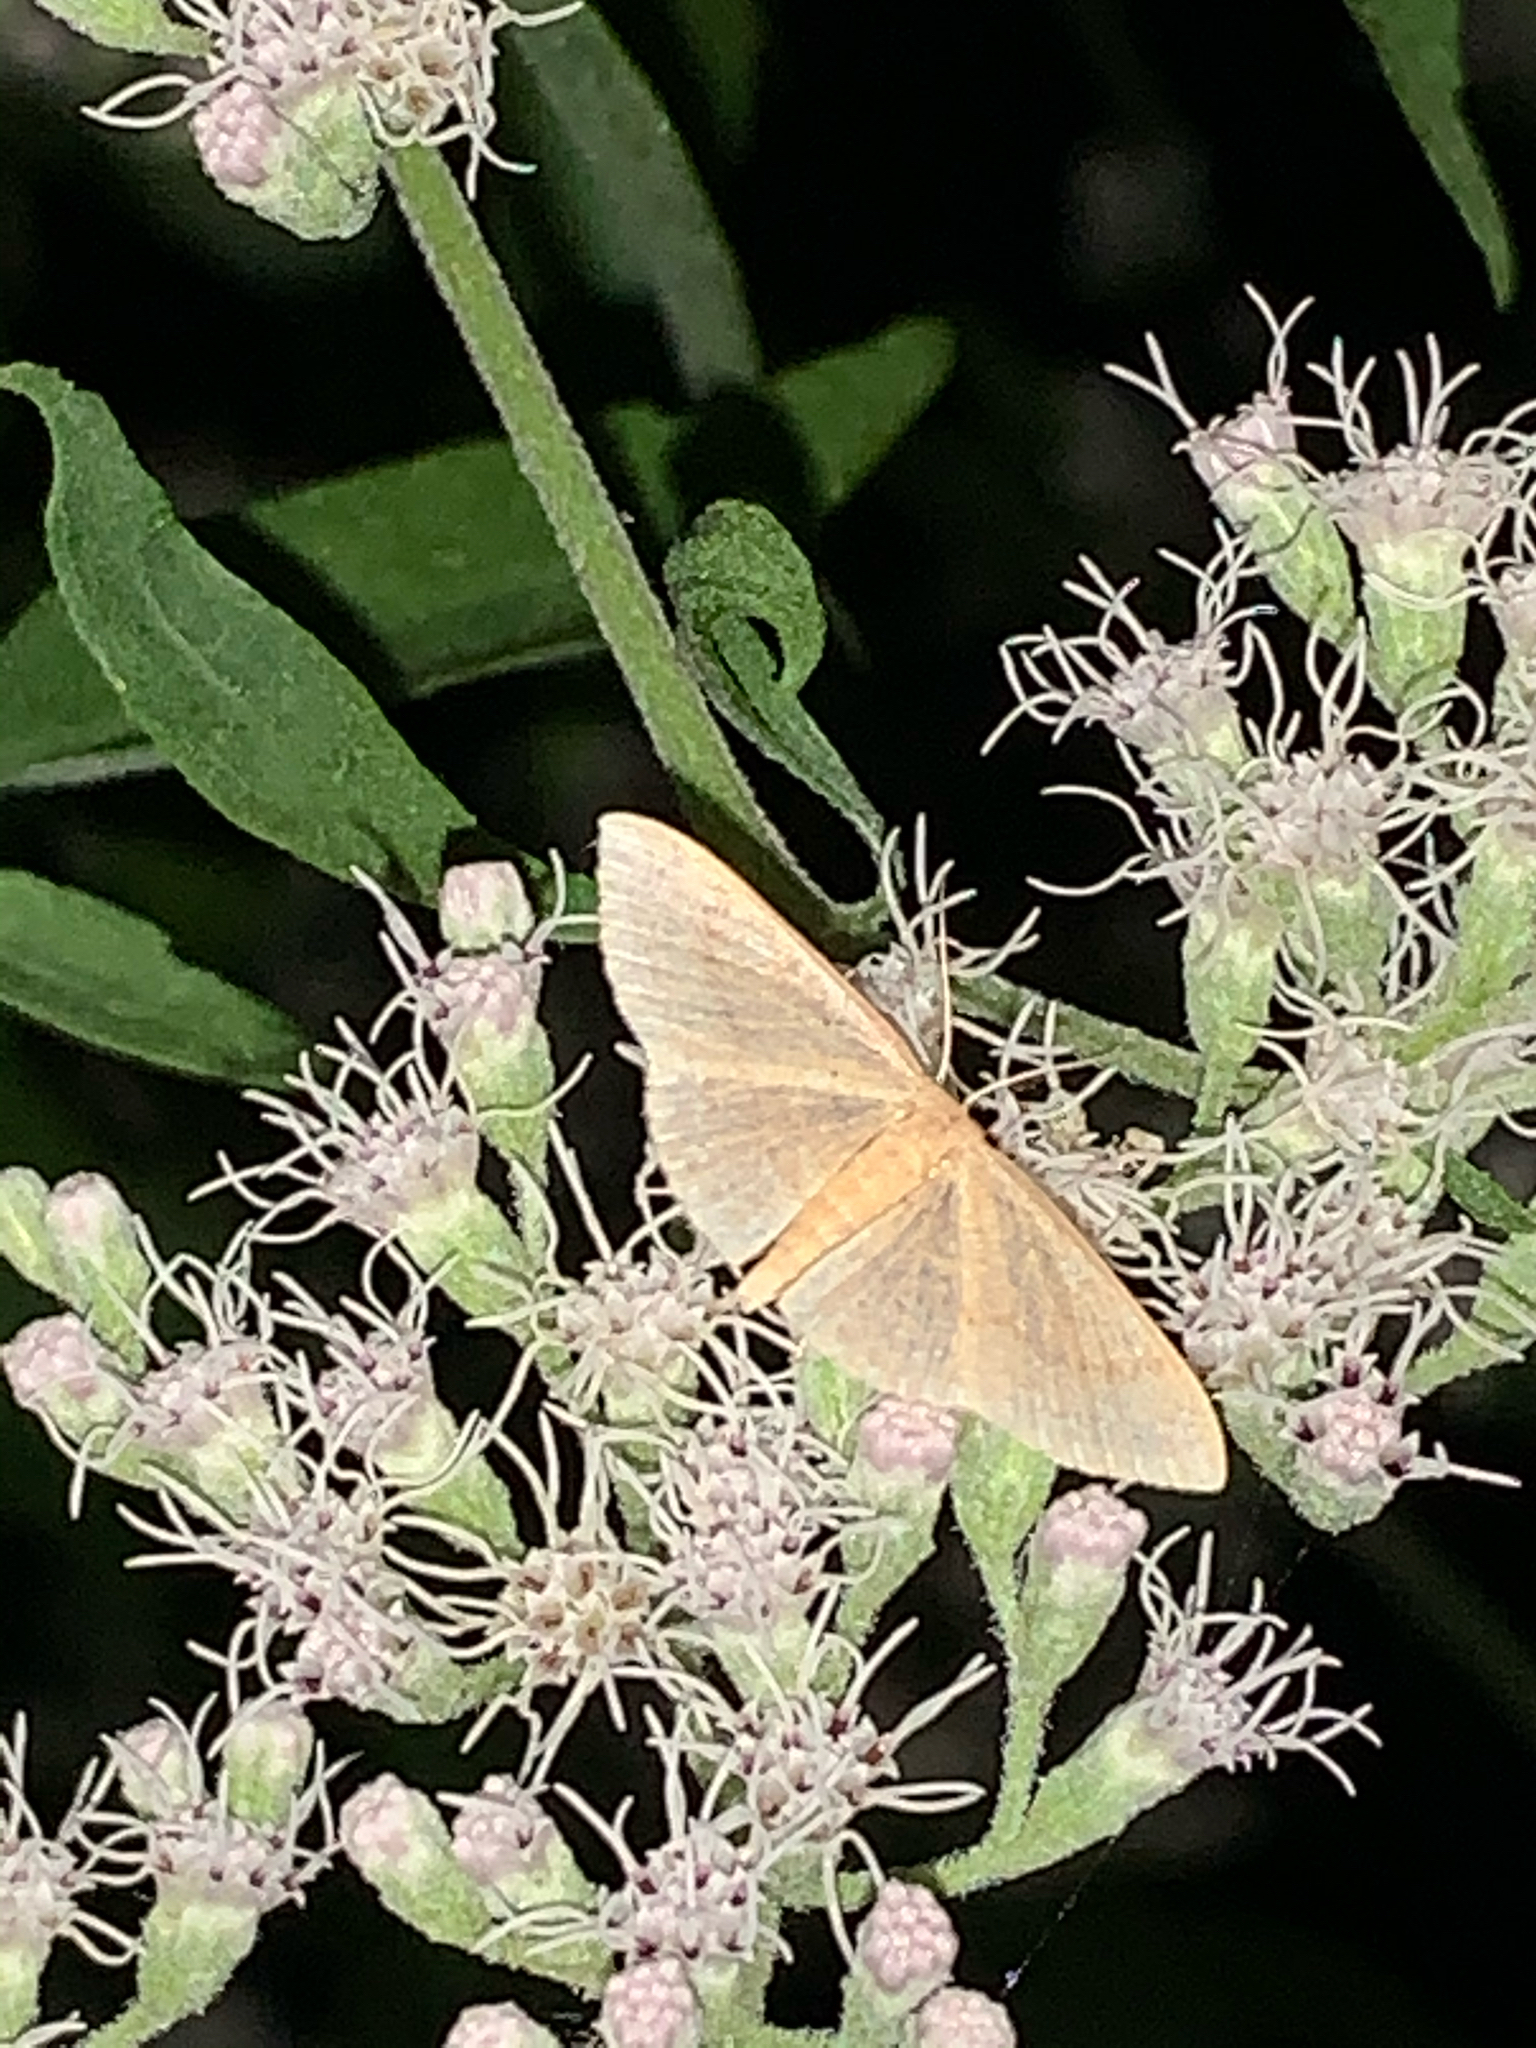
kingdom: Animalia
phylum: Arthropoda
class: Insecta
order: Lepidoptera
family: Geometridae
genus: Pleuroprucha
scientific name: Pleuroprucha insulsaria
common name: Common tan wave
